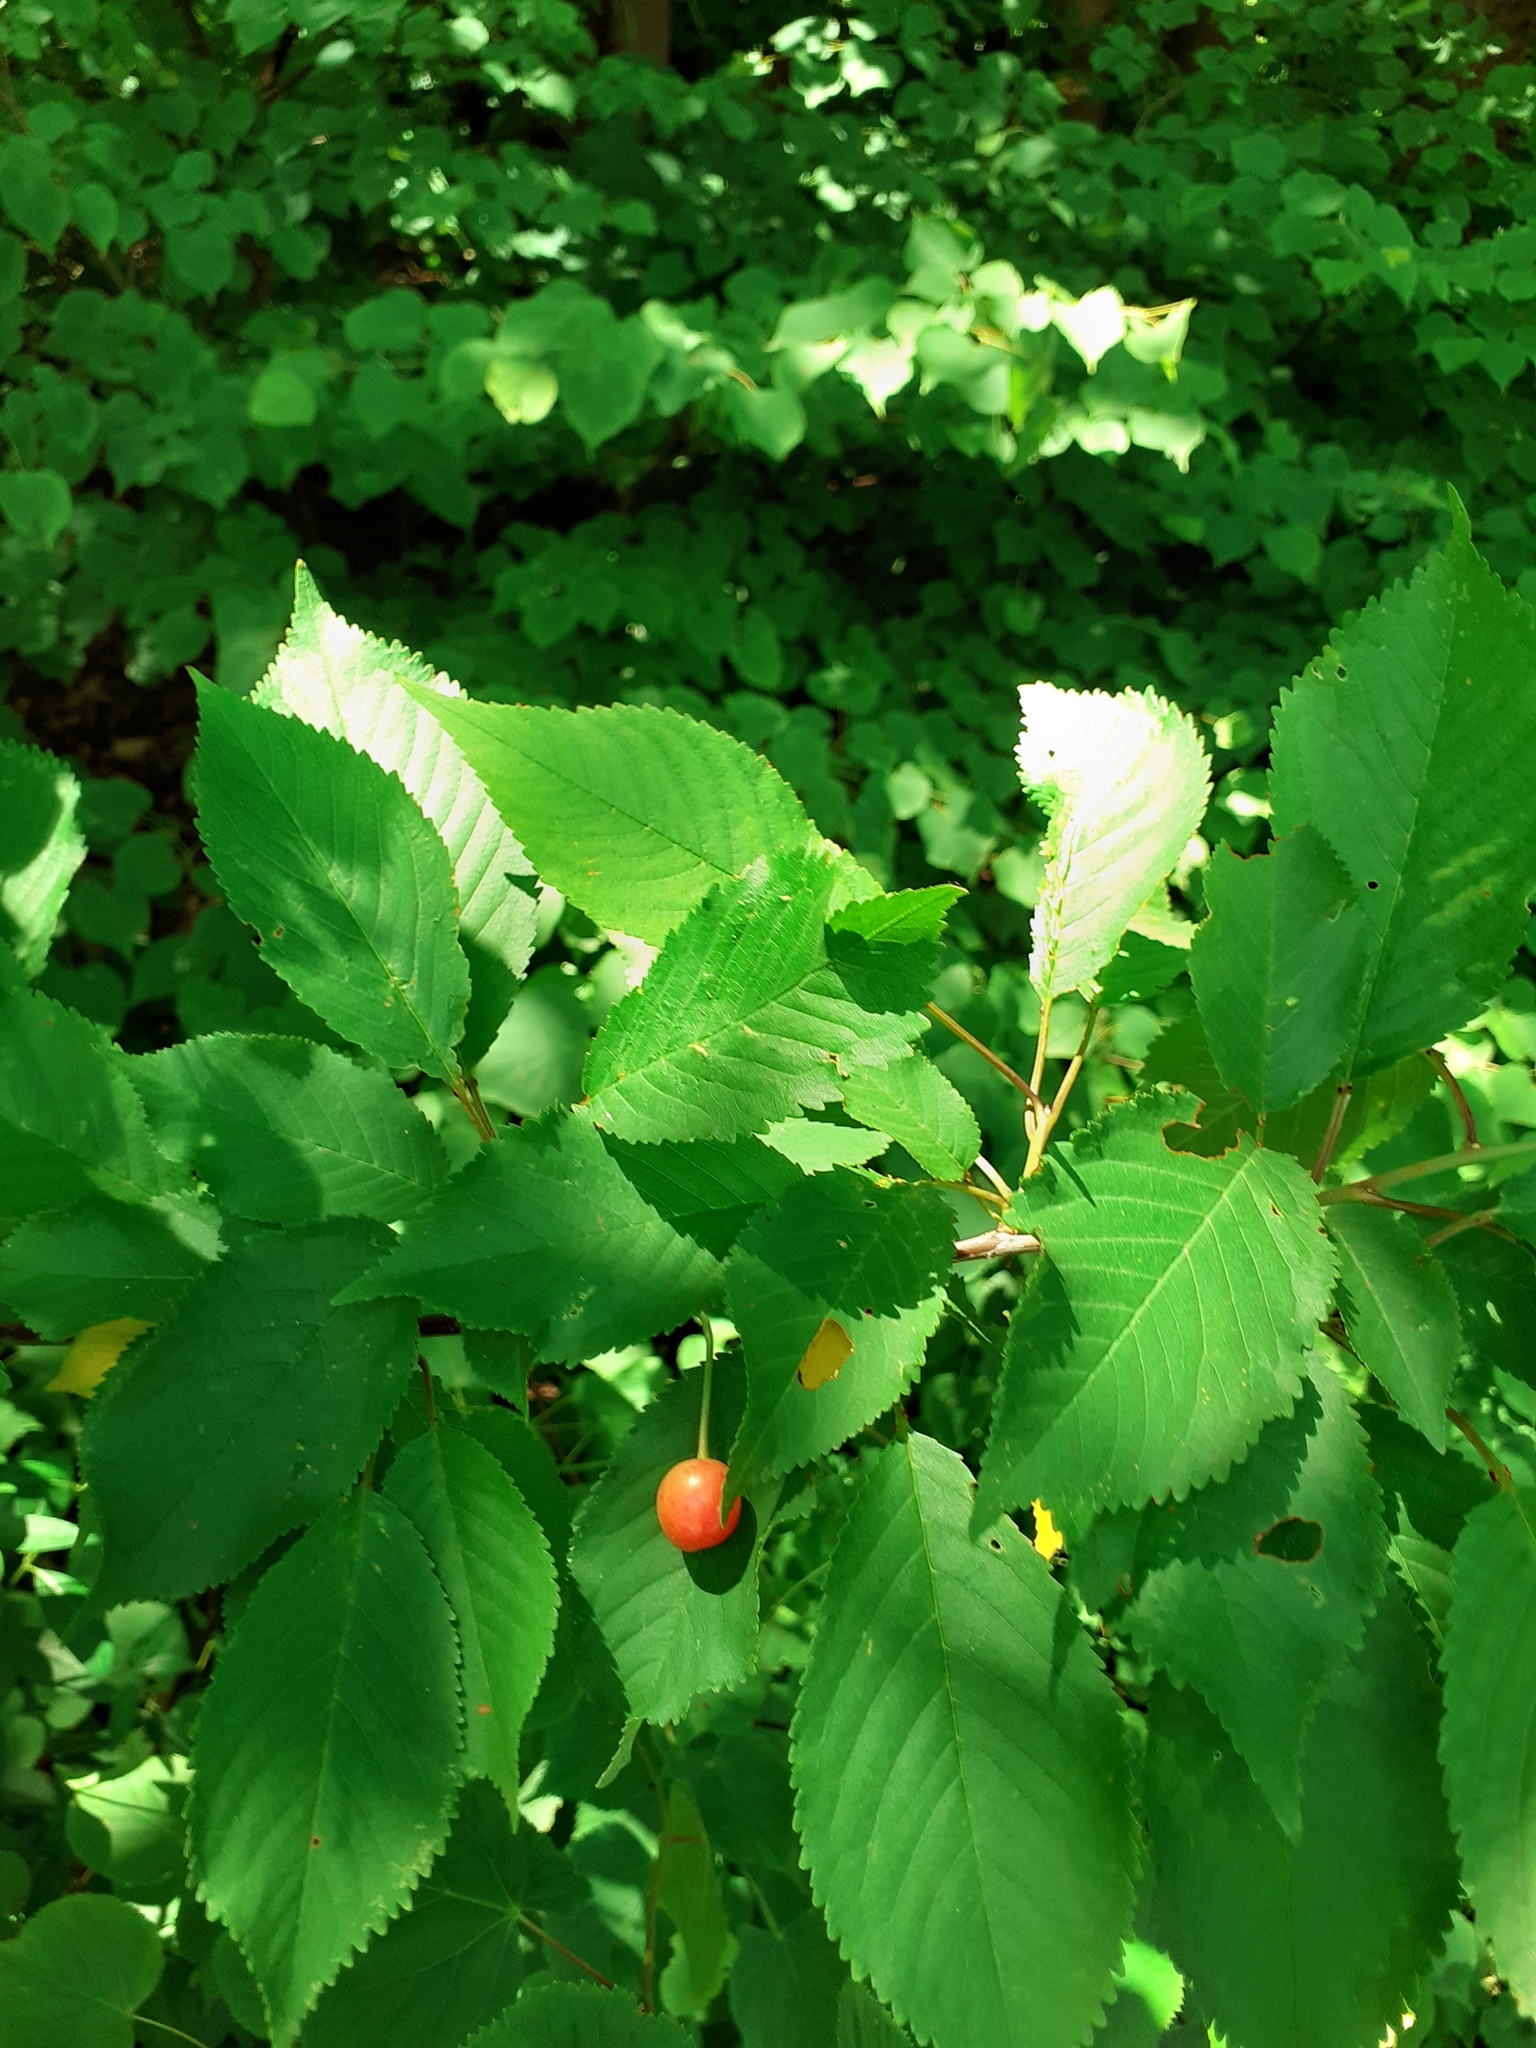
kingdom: Plantae
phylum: Tracheophyta
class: Magnoliopsida
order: Rosales
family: Rosaceae
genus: Prunus
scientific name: Prunus avium
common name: Sweet cherry
